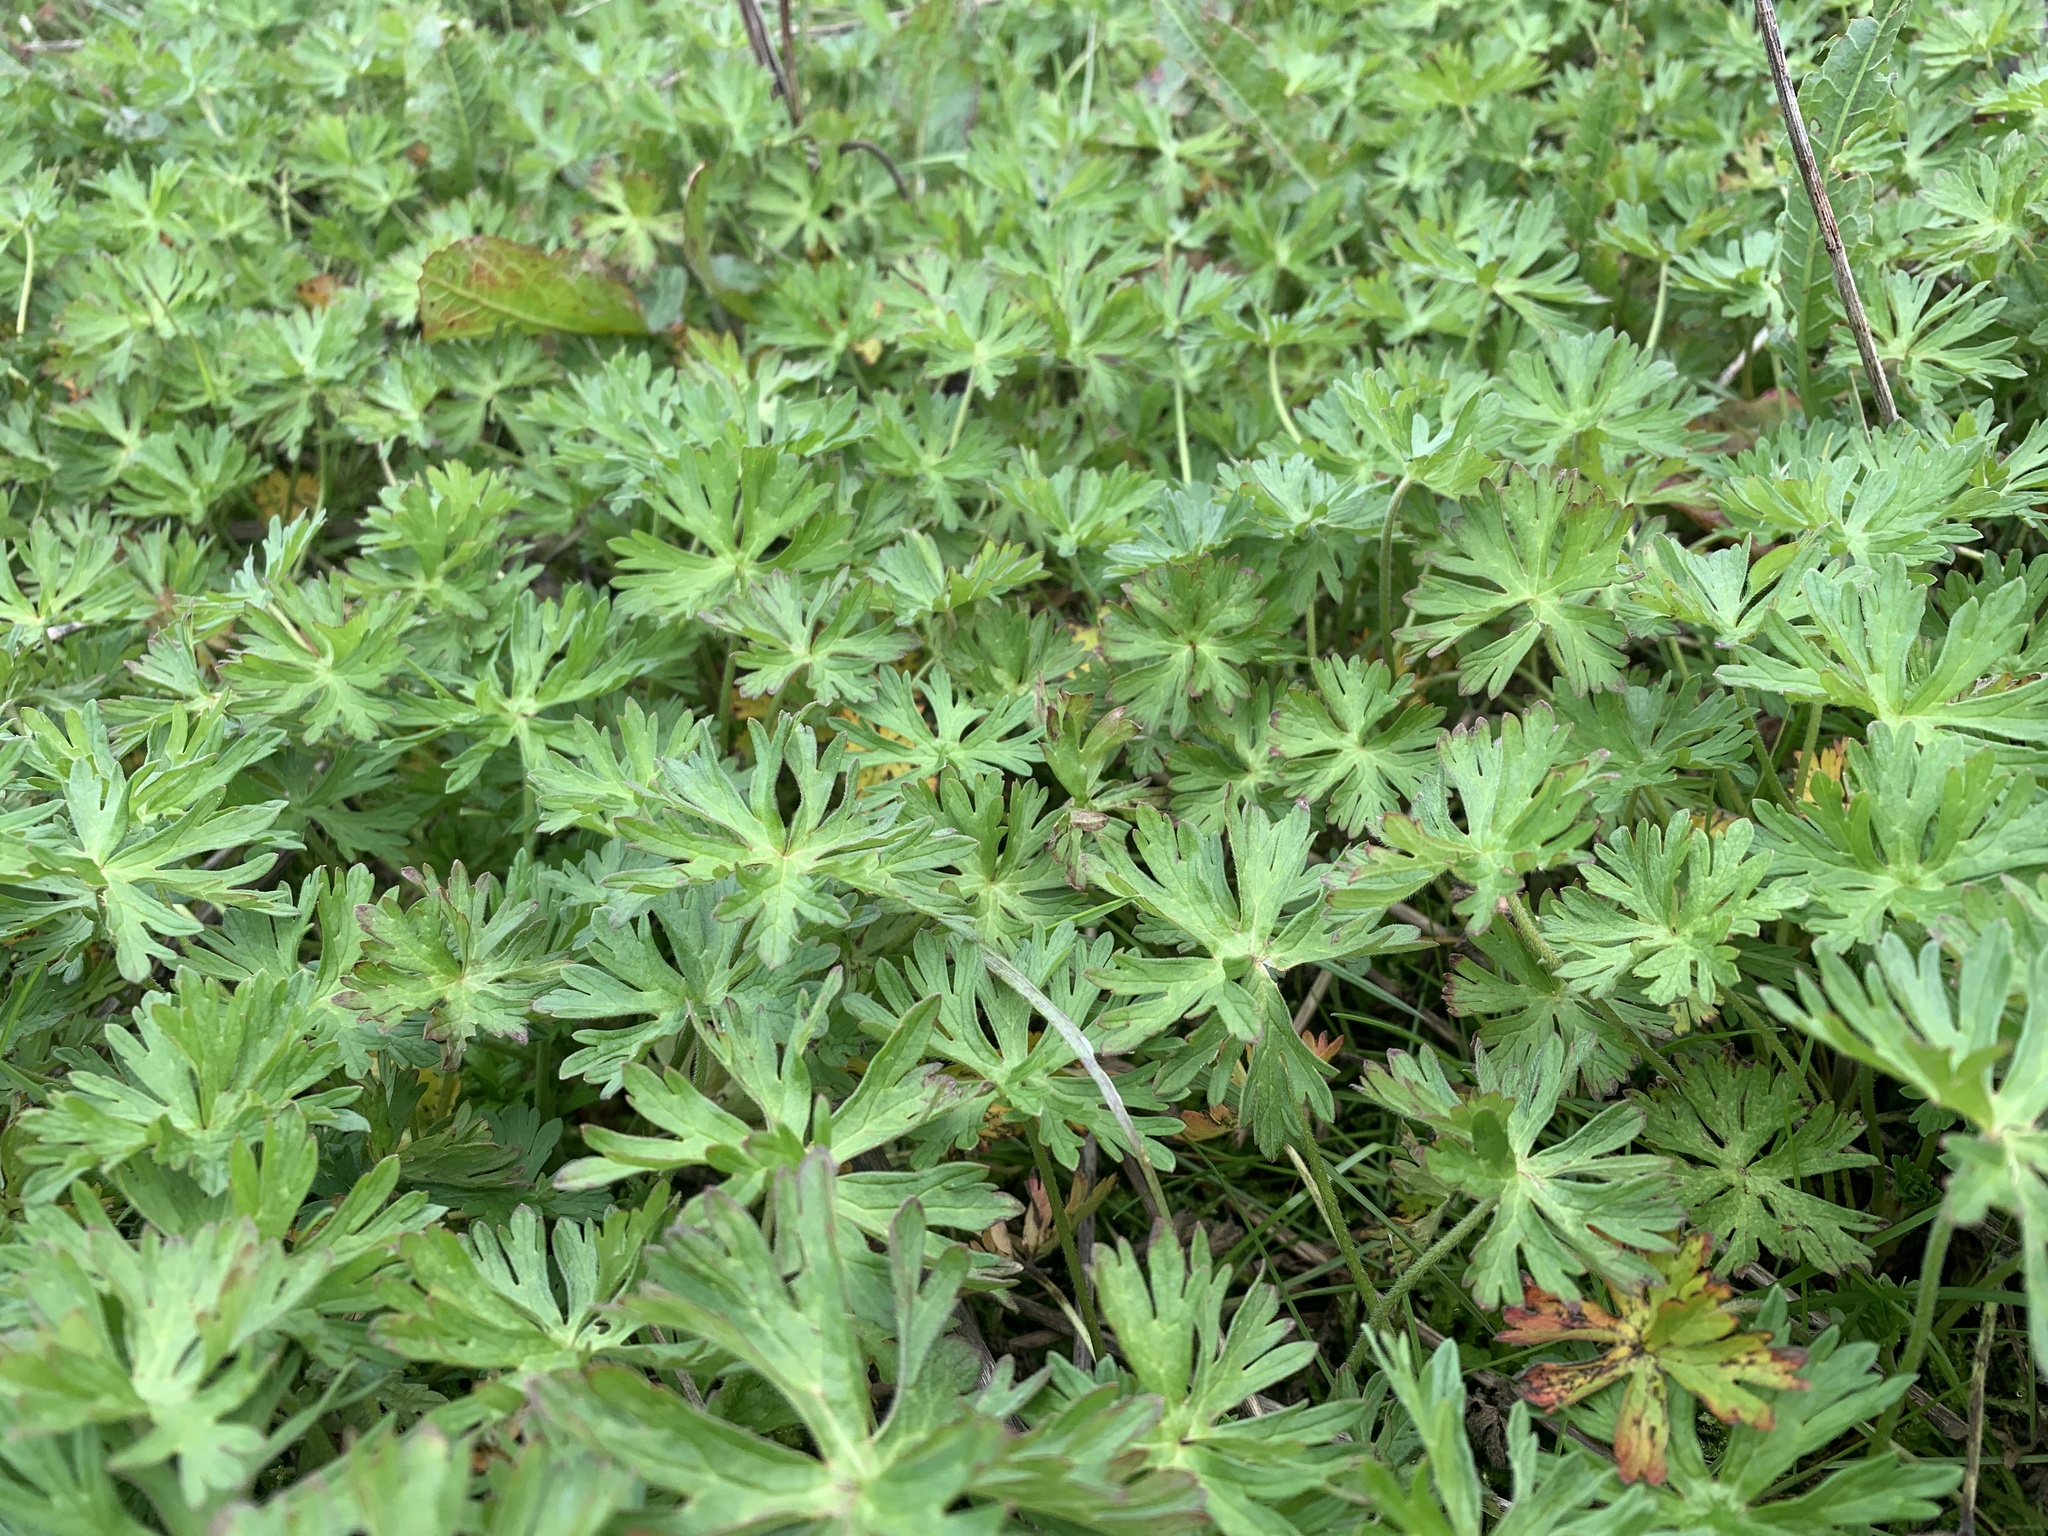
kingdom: Plantae
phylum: Tracheophyta
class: Magnoliopsida
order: Geraniales
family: Geraniaceae
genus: Geranium
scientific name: Geranium dissectum
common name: Cut-leaved crane's-bill
